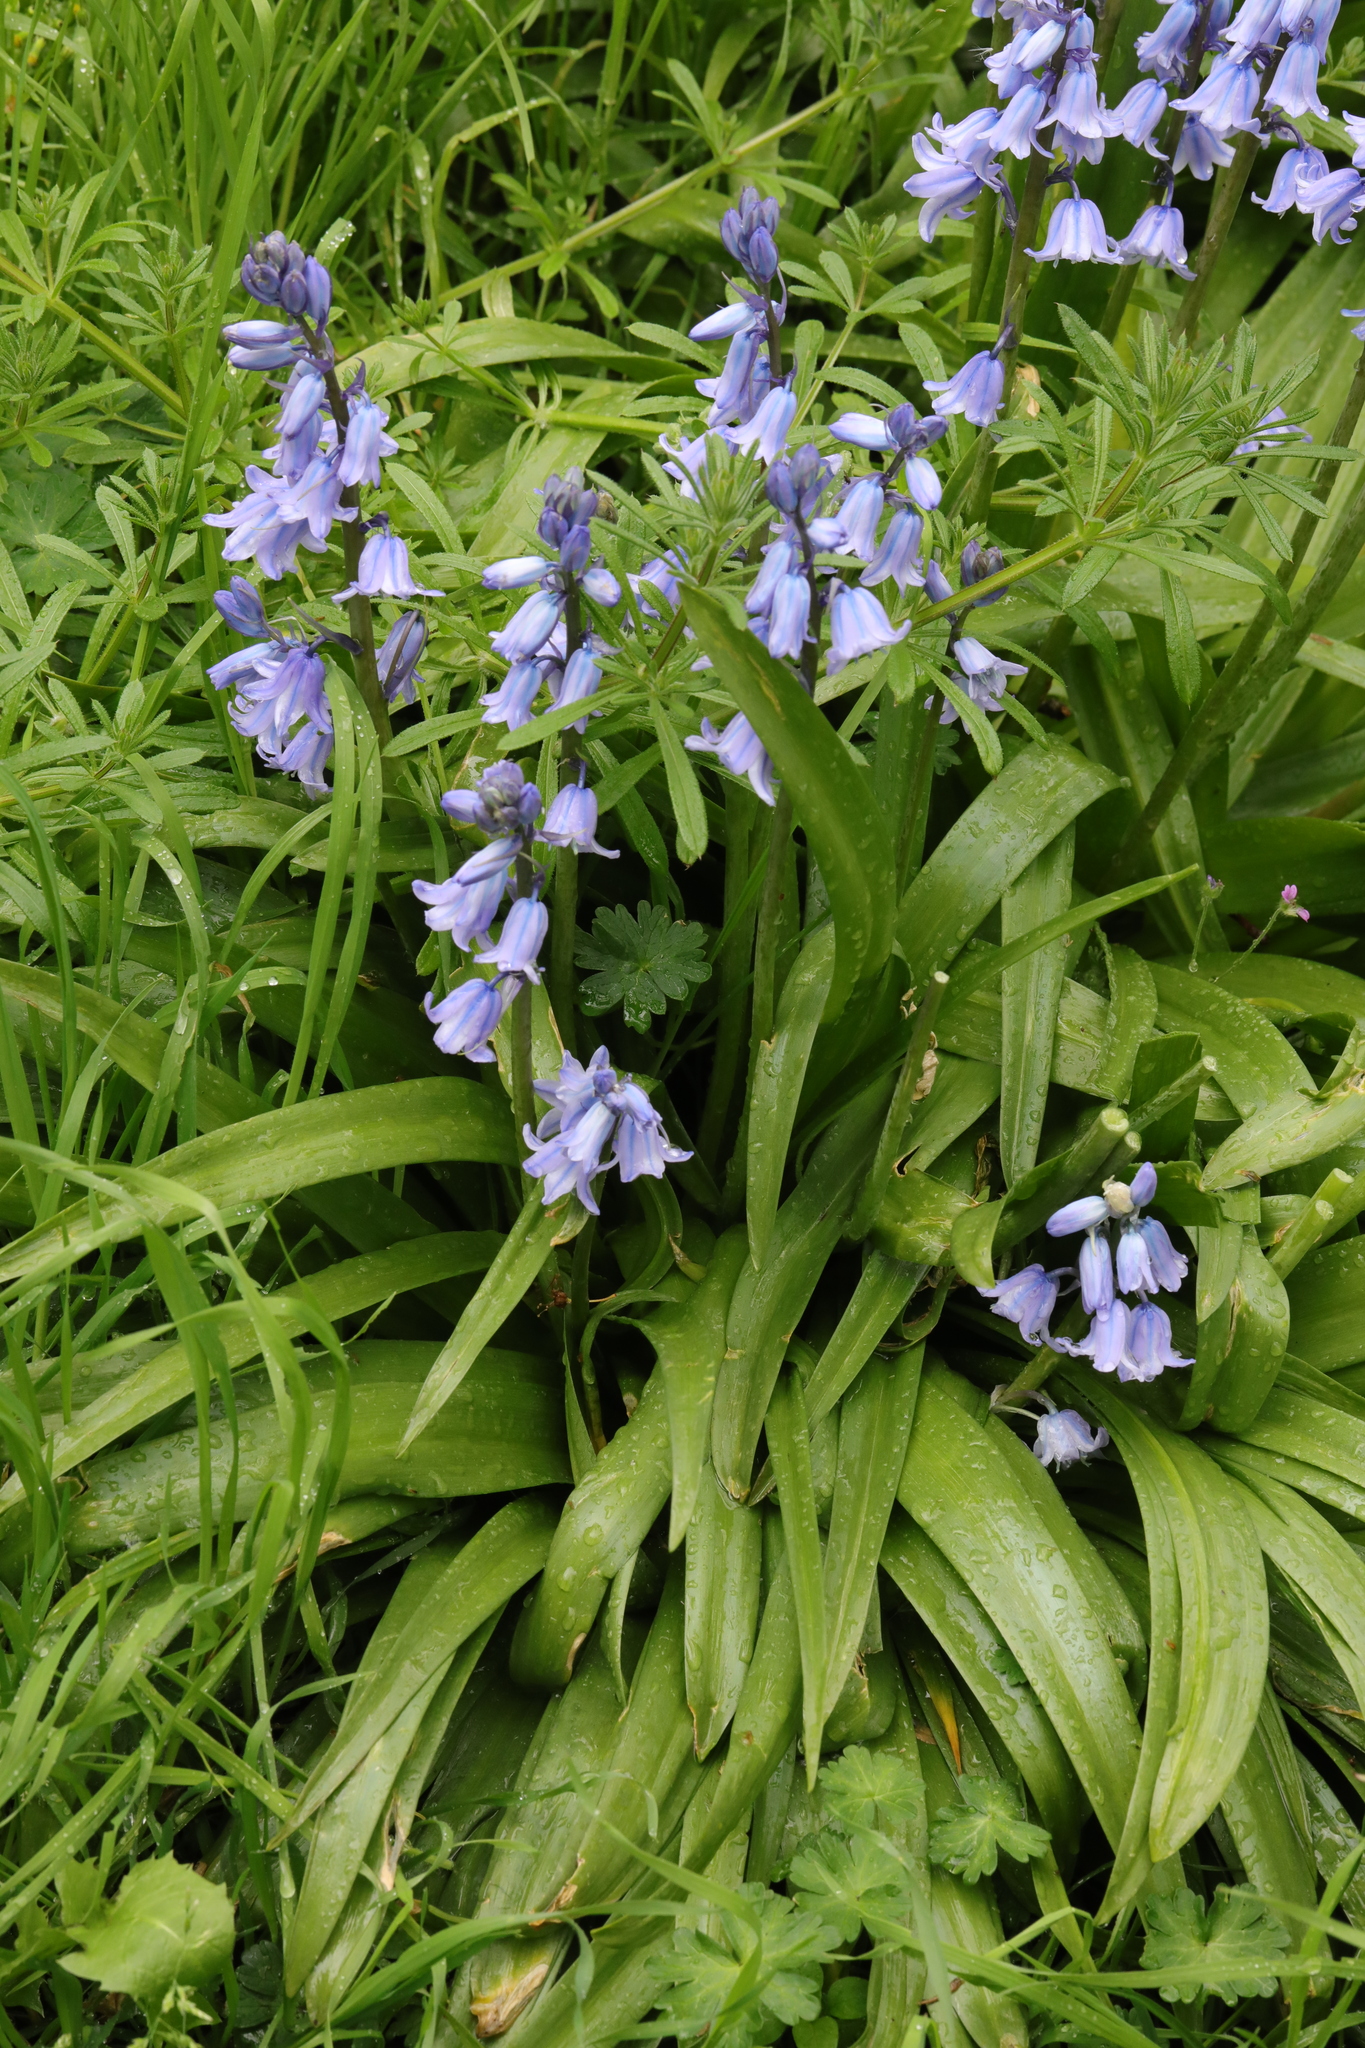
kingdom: Plantae
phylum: Tracheophyta
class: Liliopsida
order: Asparagales
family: Asparagaceae
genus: Hyacinthoides
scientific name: Hyacinthoides hispanica
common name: Spanish bluebell
